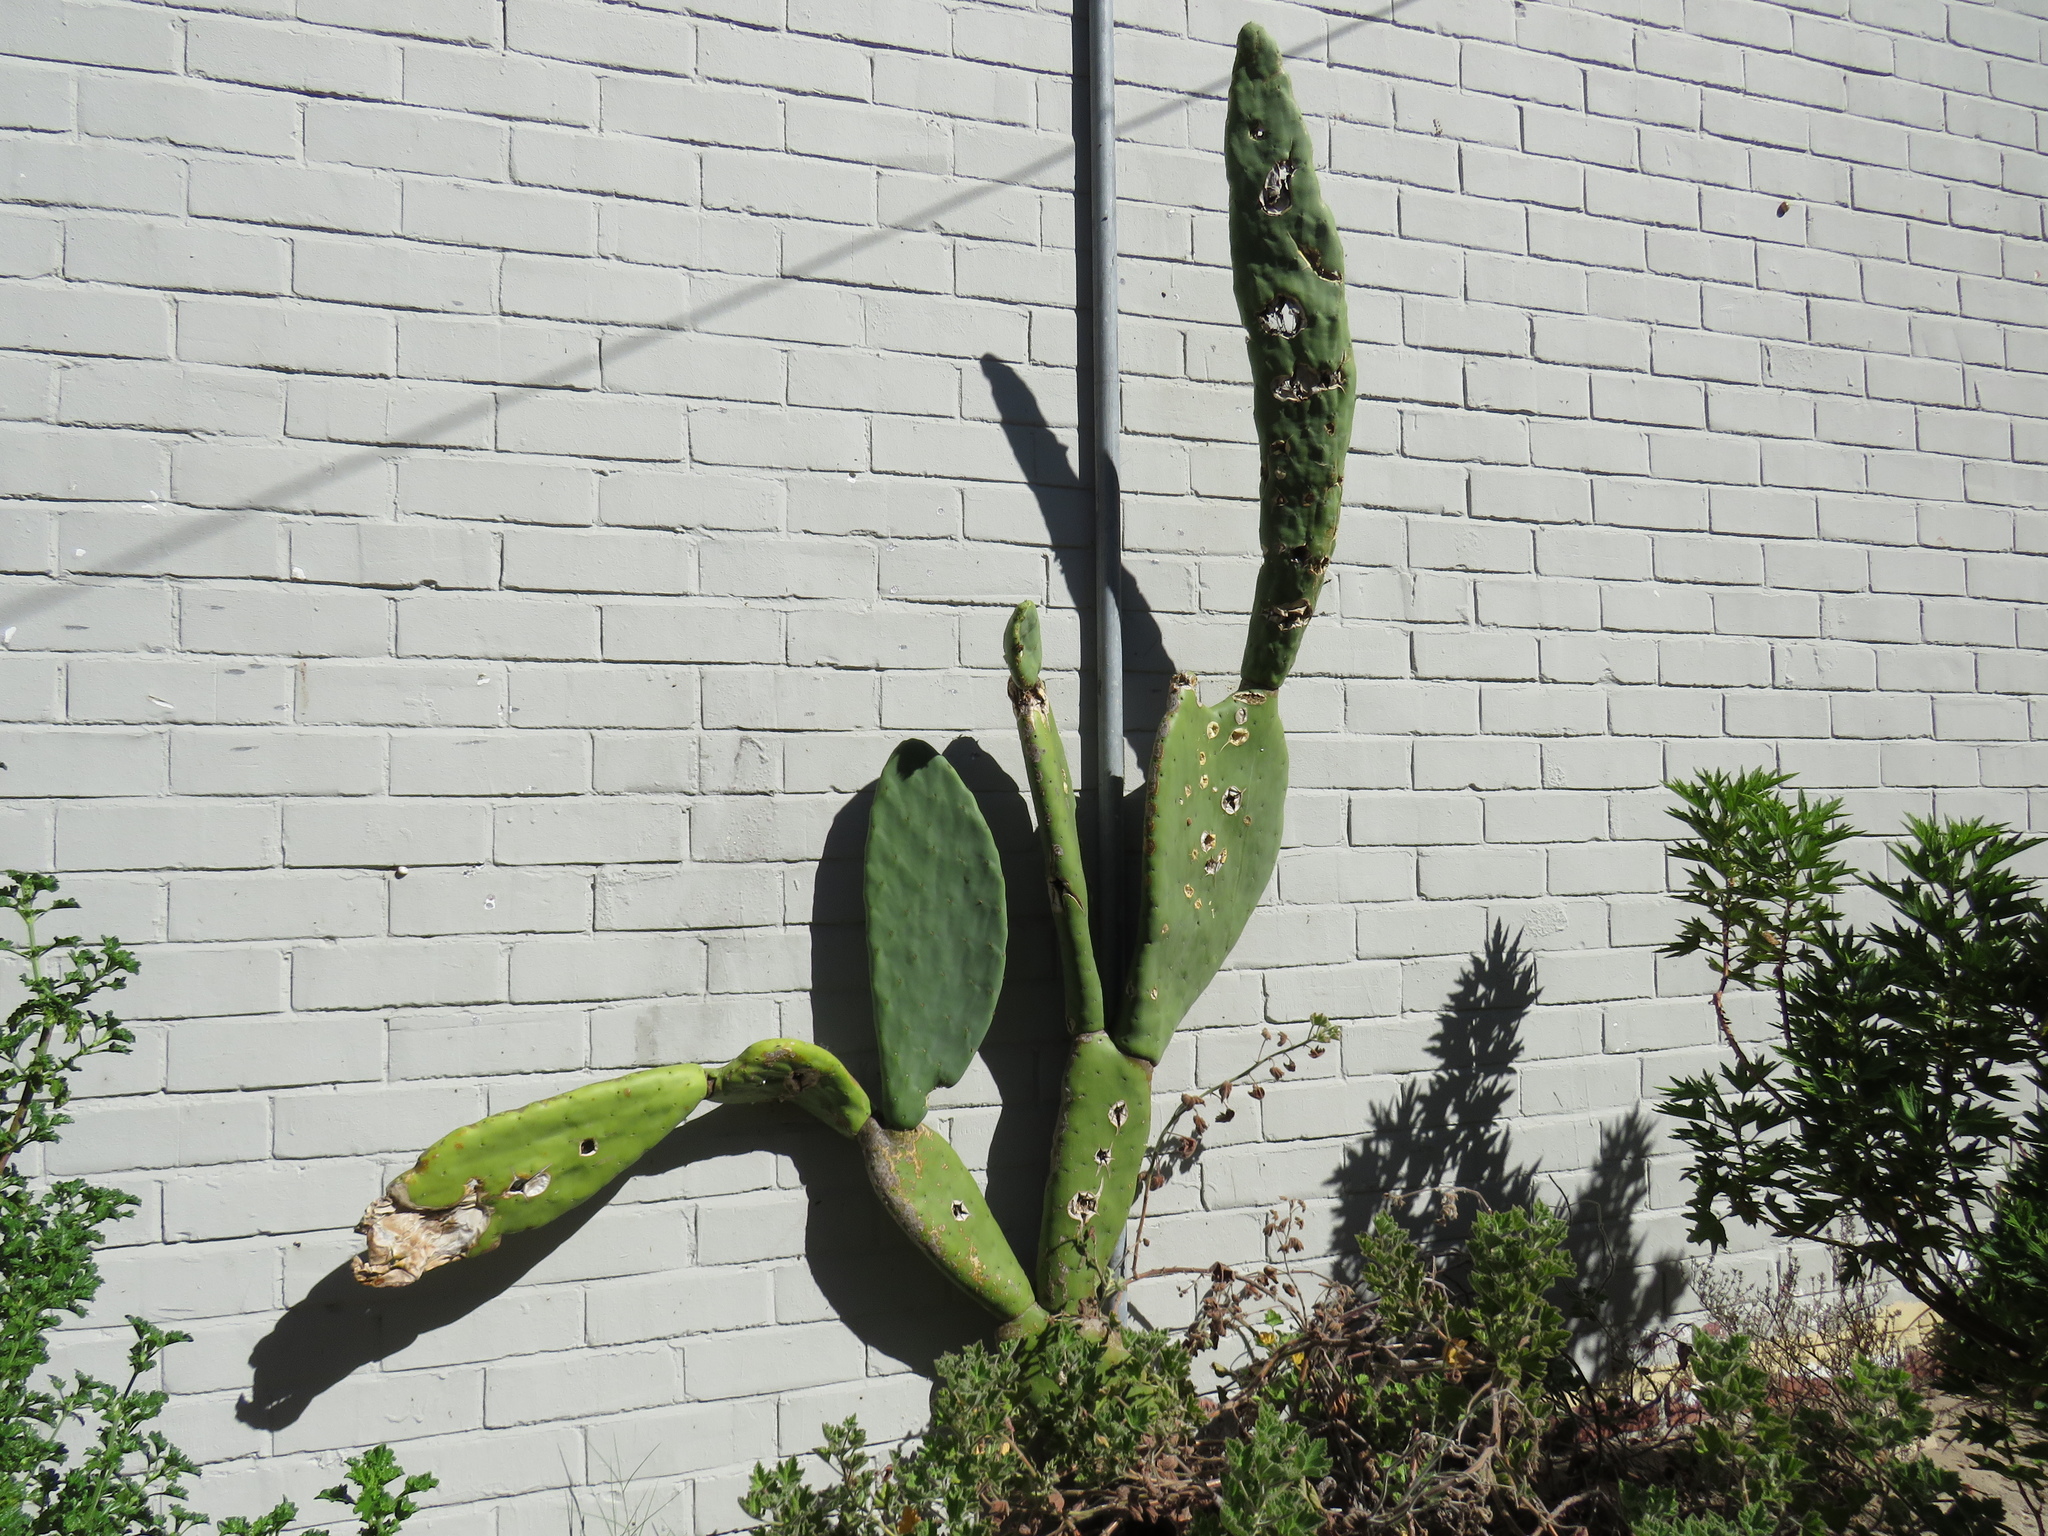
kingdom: Plantae
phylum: Tracheophyta
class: Magnoliopsida
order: Caryophyllales
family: Cactaceae
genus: Opuntia
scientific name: Opuntia ficus-indica
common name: Barbary fig
